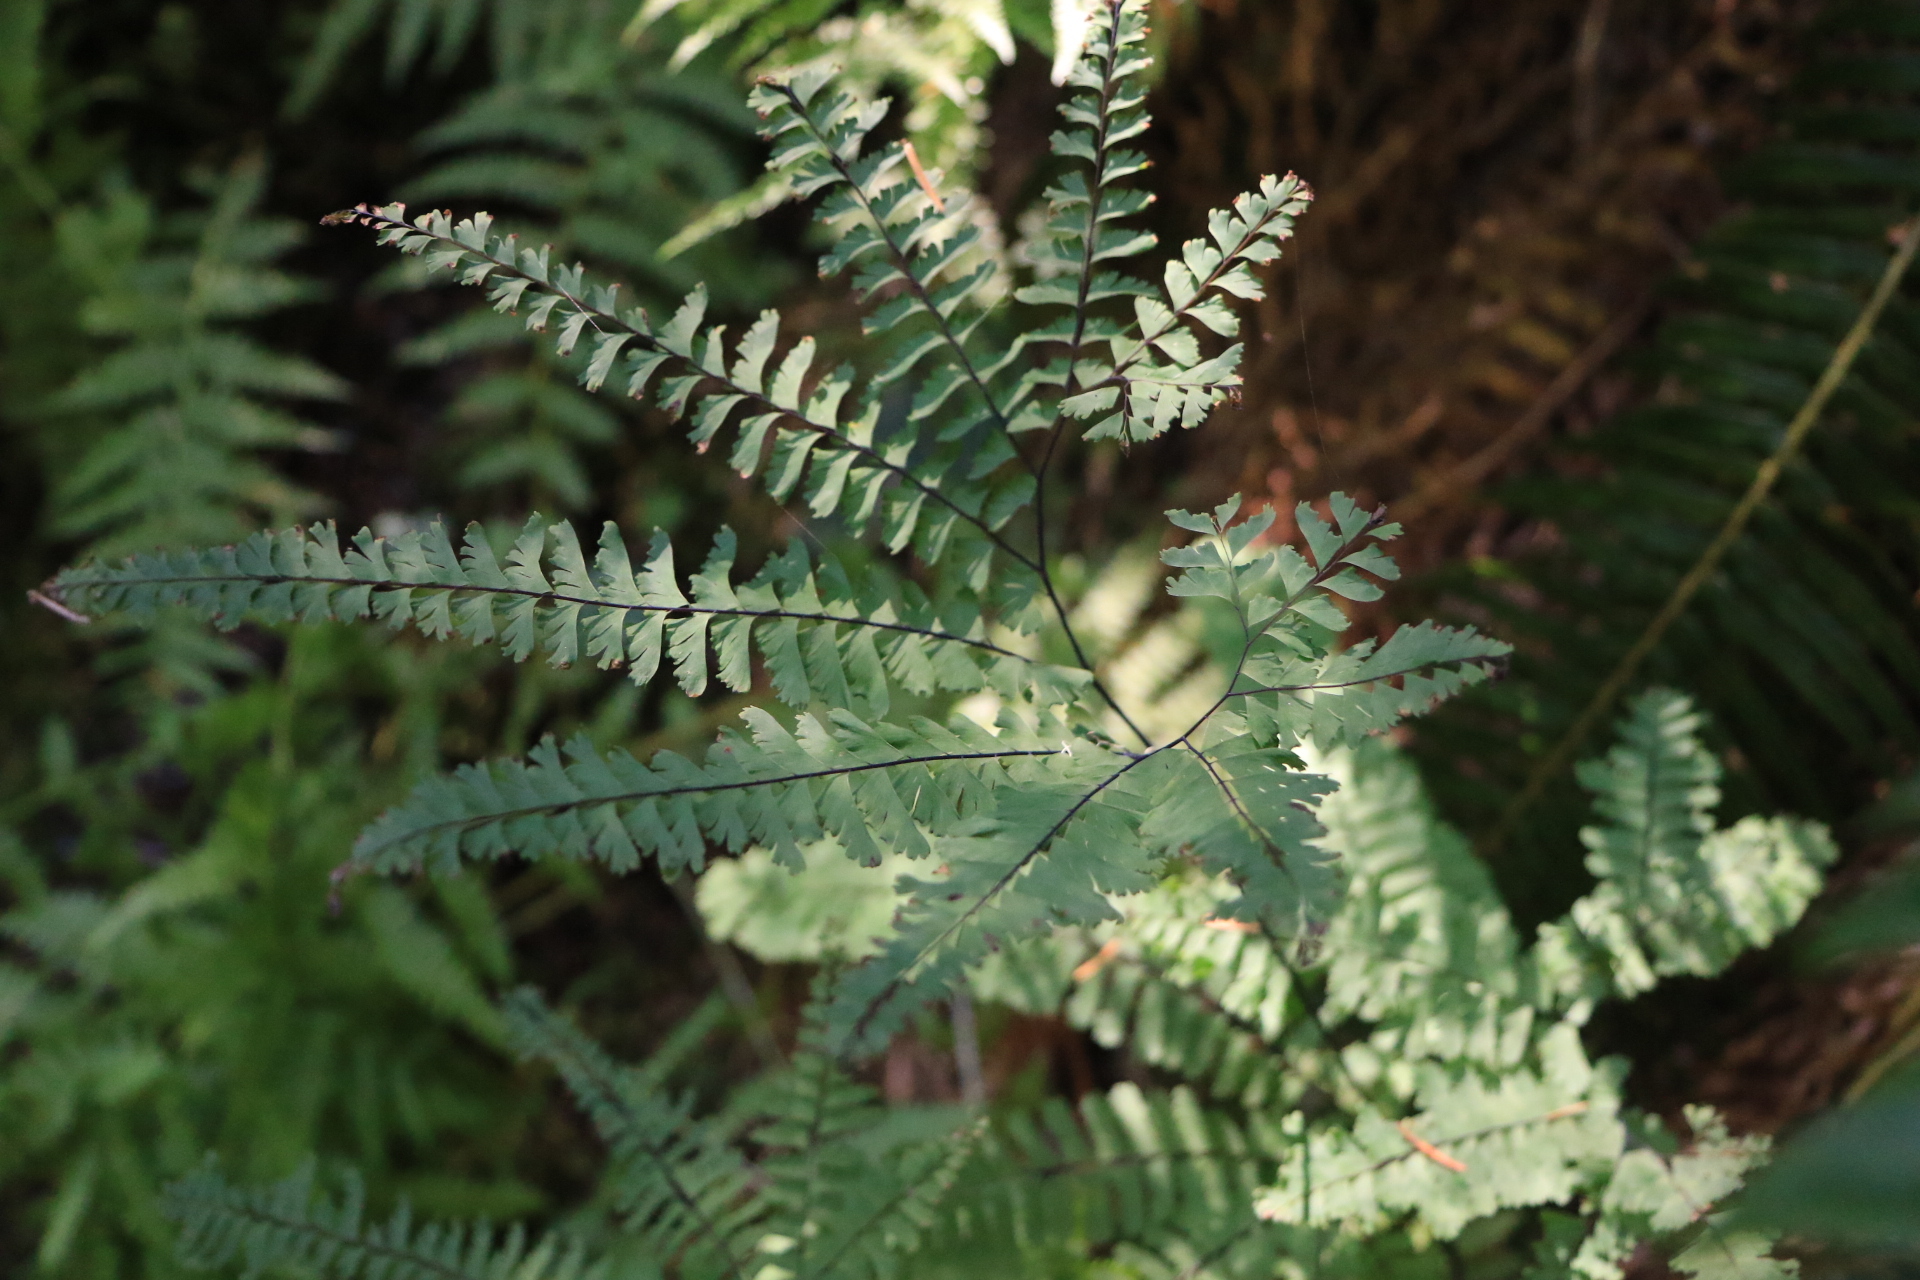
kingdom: Plantae
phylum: Tracheophyta
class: Polypodiopsida
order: Polypodiales
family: Pteridaceae
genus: Adiantum
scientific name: Adiantum aleuticum
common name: Aleutian maidenhair fern
